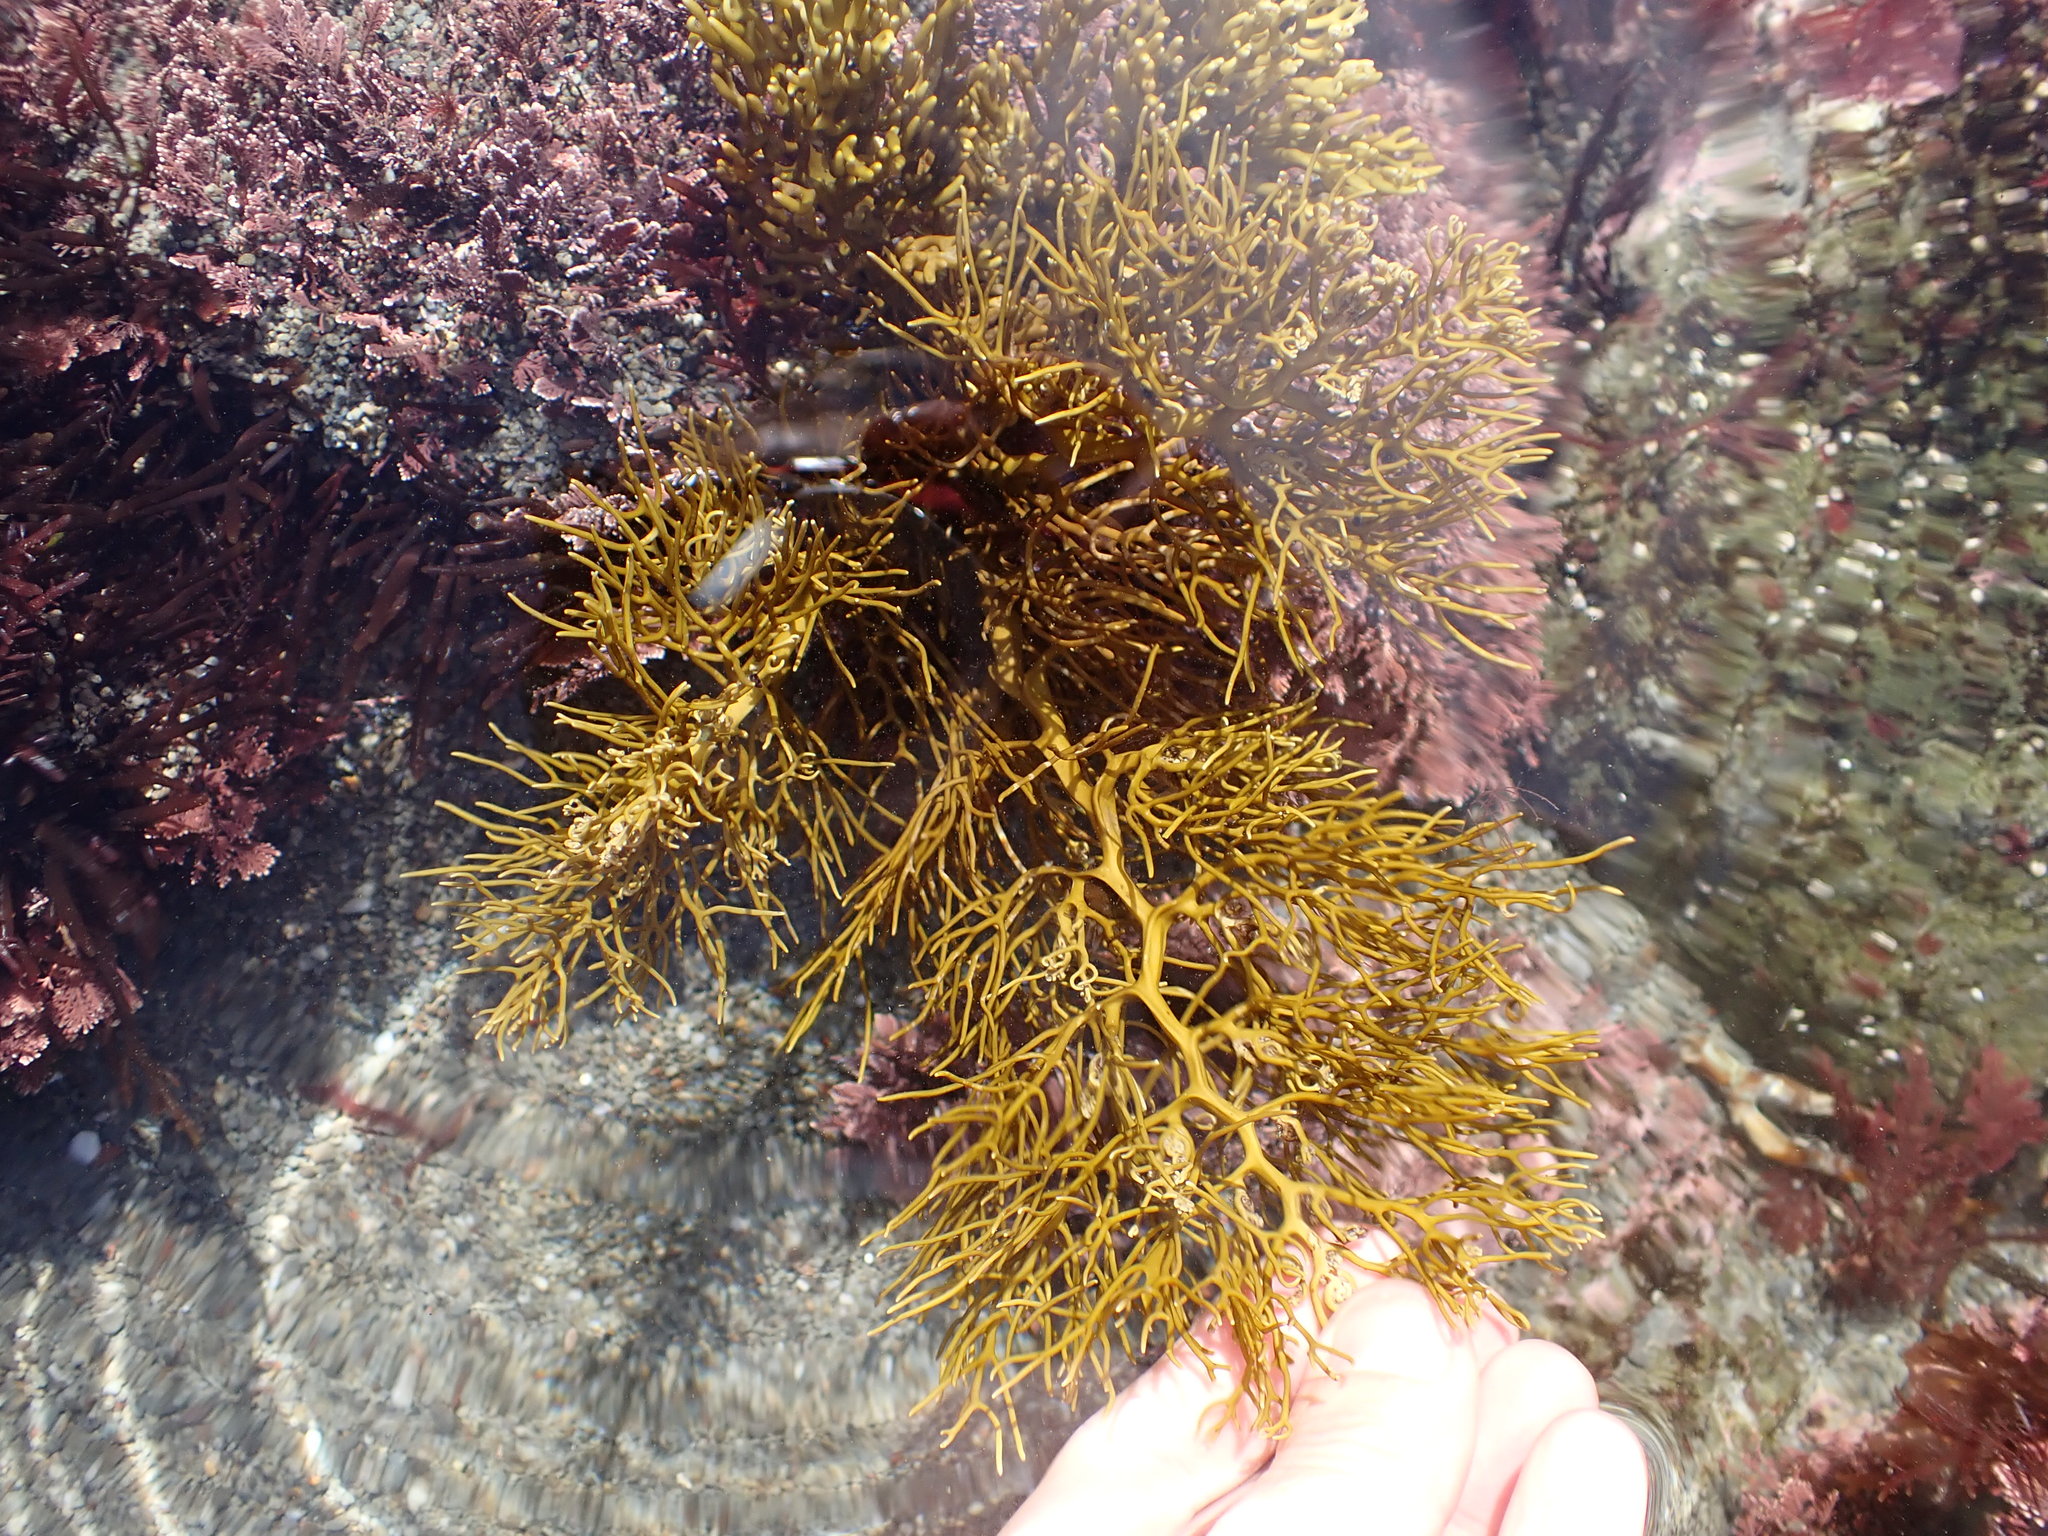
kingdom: Chromista
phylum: Ochrophyta
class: Phaeophyceae
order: Fucales
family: Sargassaceae
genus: Cystophora
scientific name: Cystophora retroflexa
